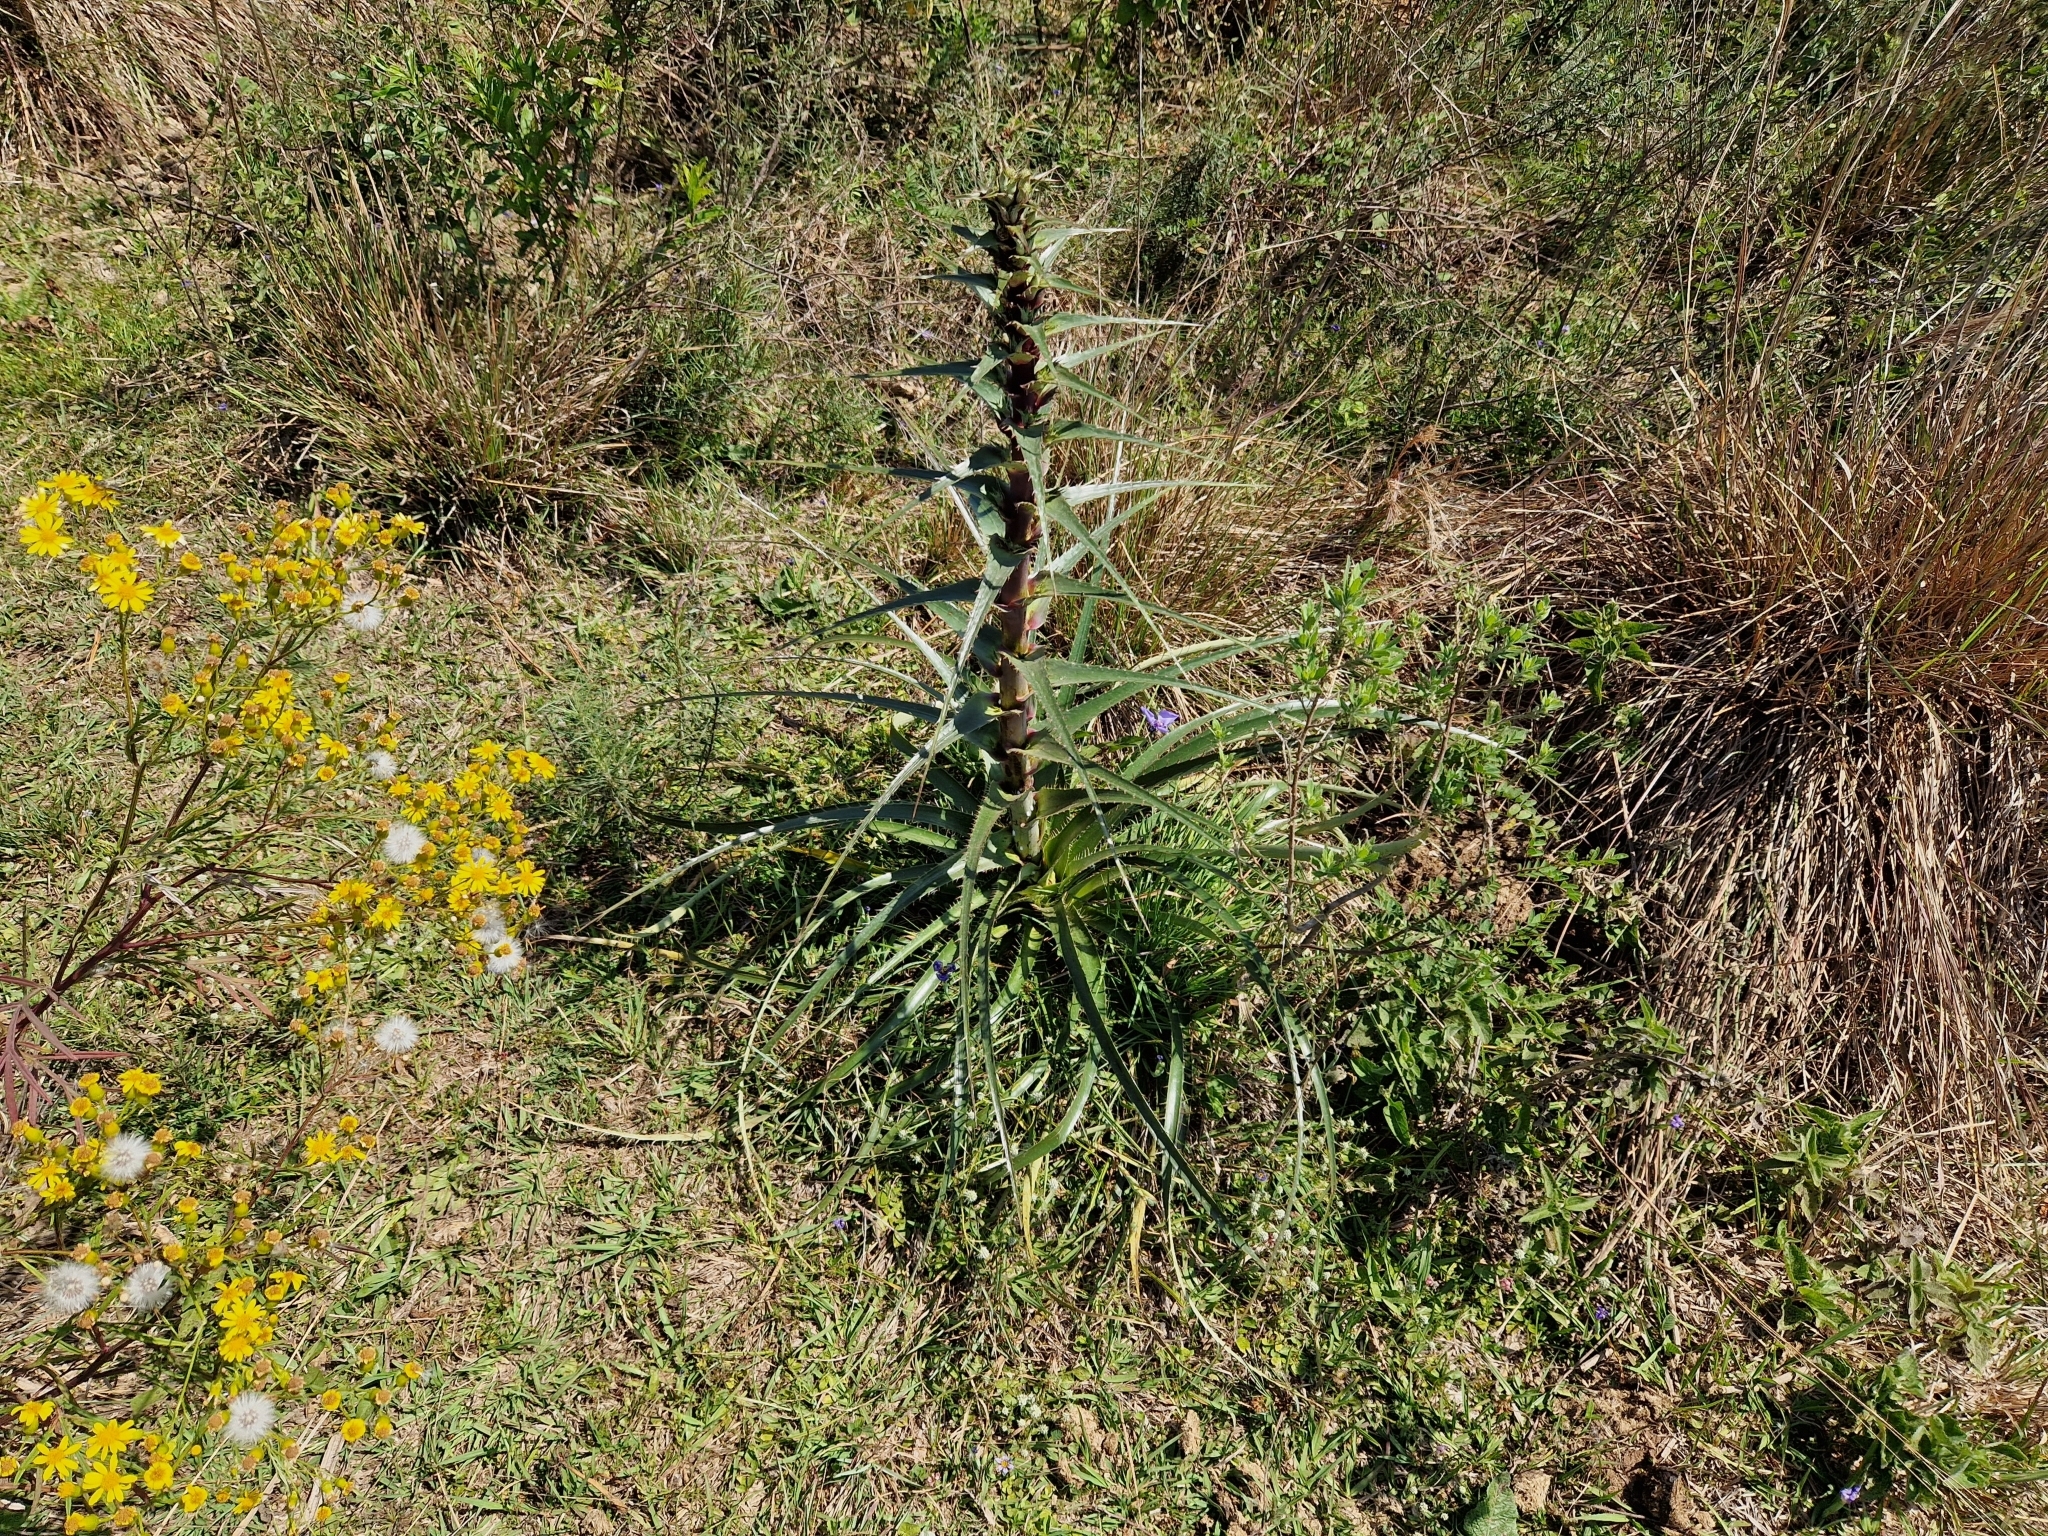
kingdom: Plantae
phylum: Tracheophyta
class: Magnoliopsida
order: Apiales
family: Apiaceae
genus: Eryngium
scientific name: Eryngium horridum
